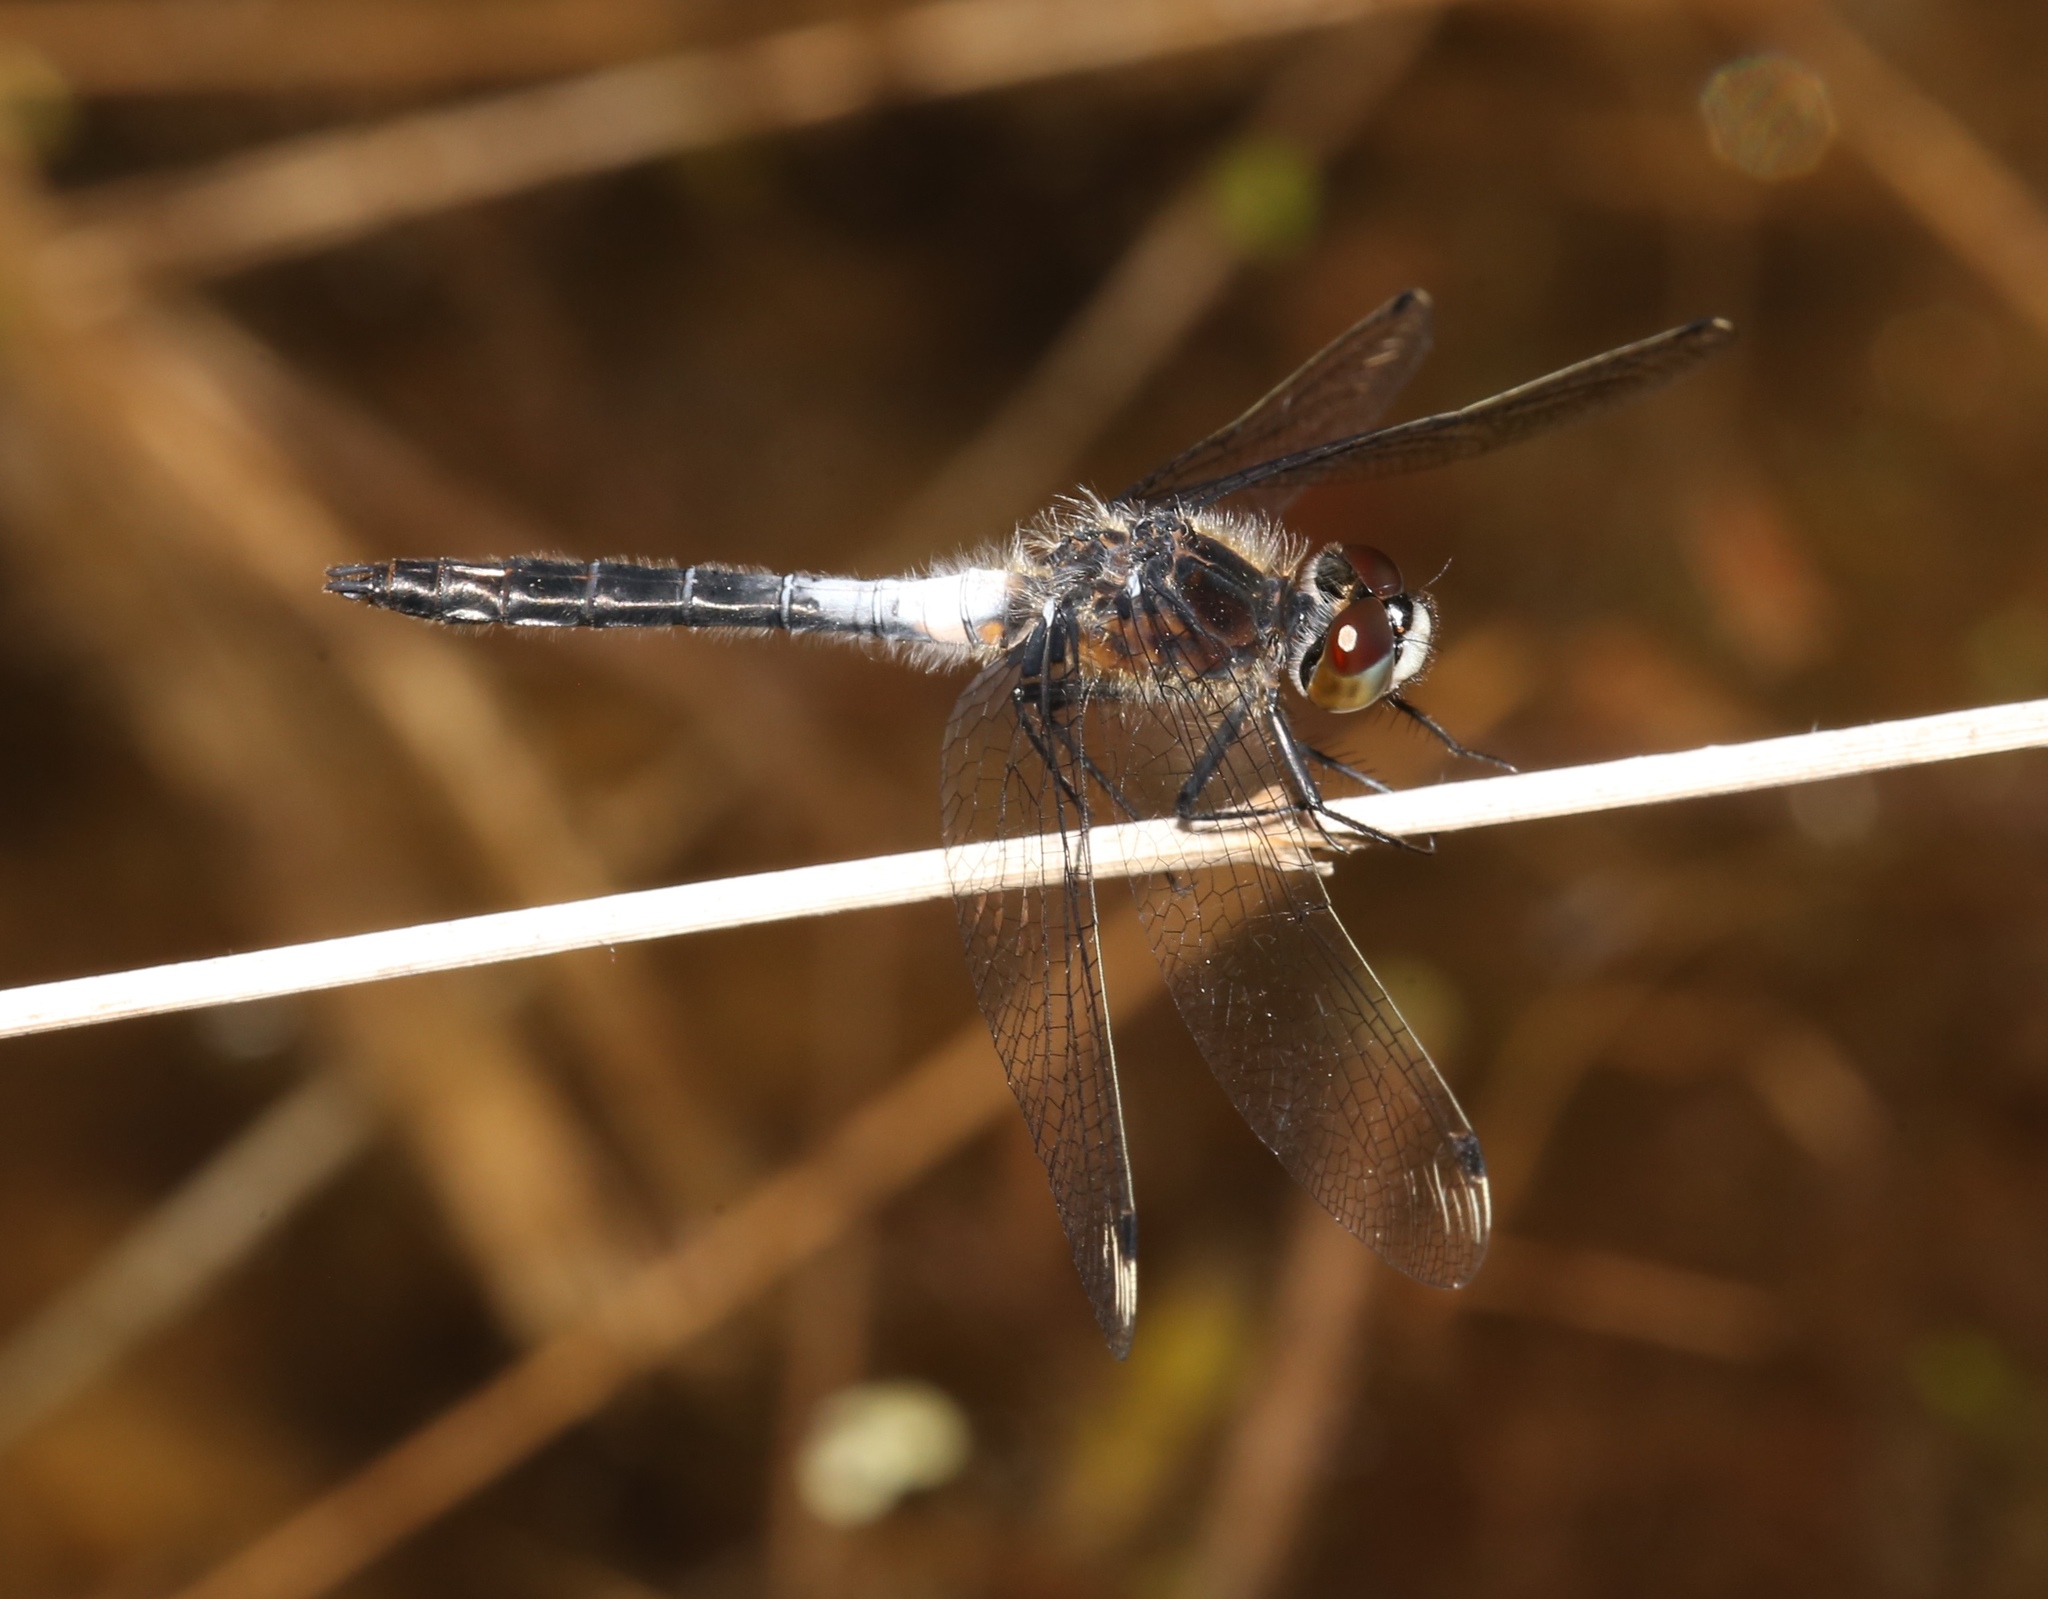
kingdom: Animalia
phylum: Arthropoda
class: Insecta
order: Odonata
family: Libellulidae
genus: Leucorrhinia
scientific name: Leucorrhinia frigida
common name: Frosted whiteface
